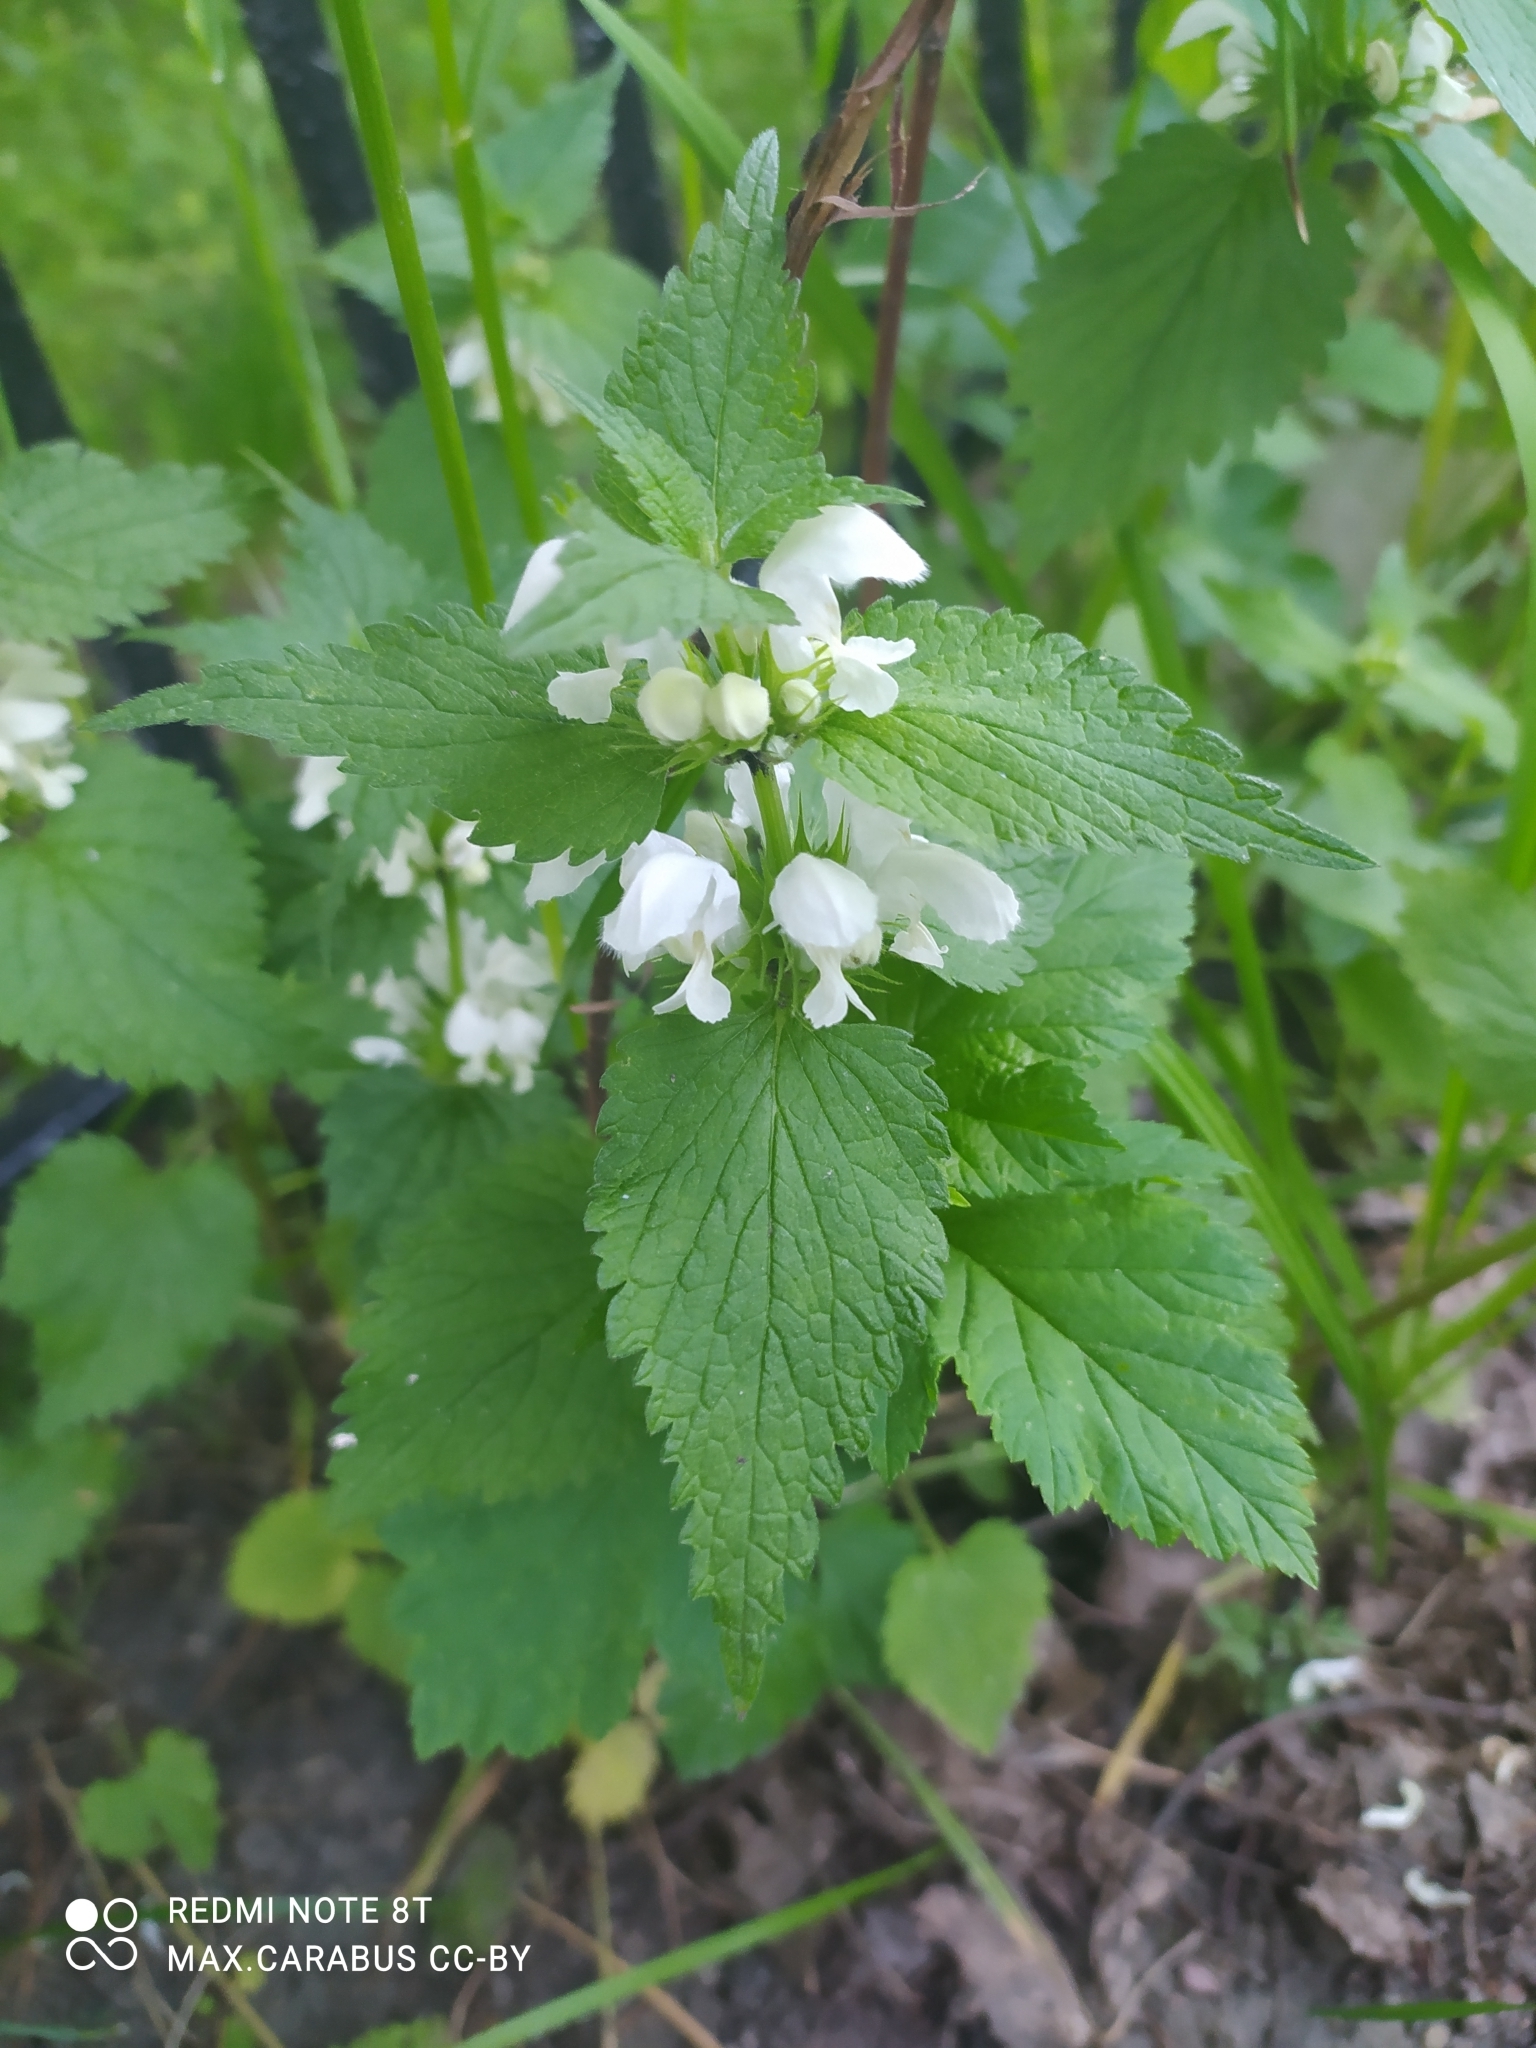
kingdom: Plantae
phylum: Tracheophyta
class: Magnoliopsida
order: Lamiales
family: Lamiaceae
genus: Lamium
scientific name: Lamium album
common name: White dead-nettle
